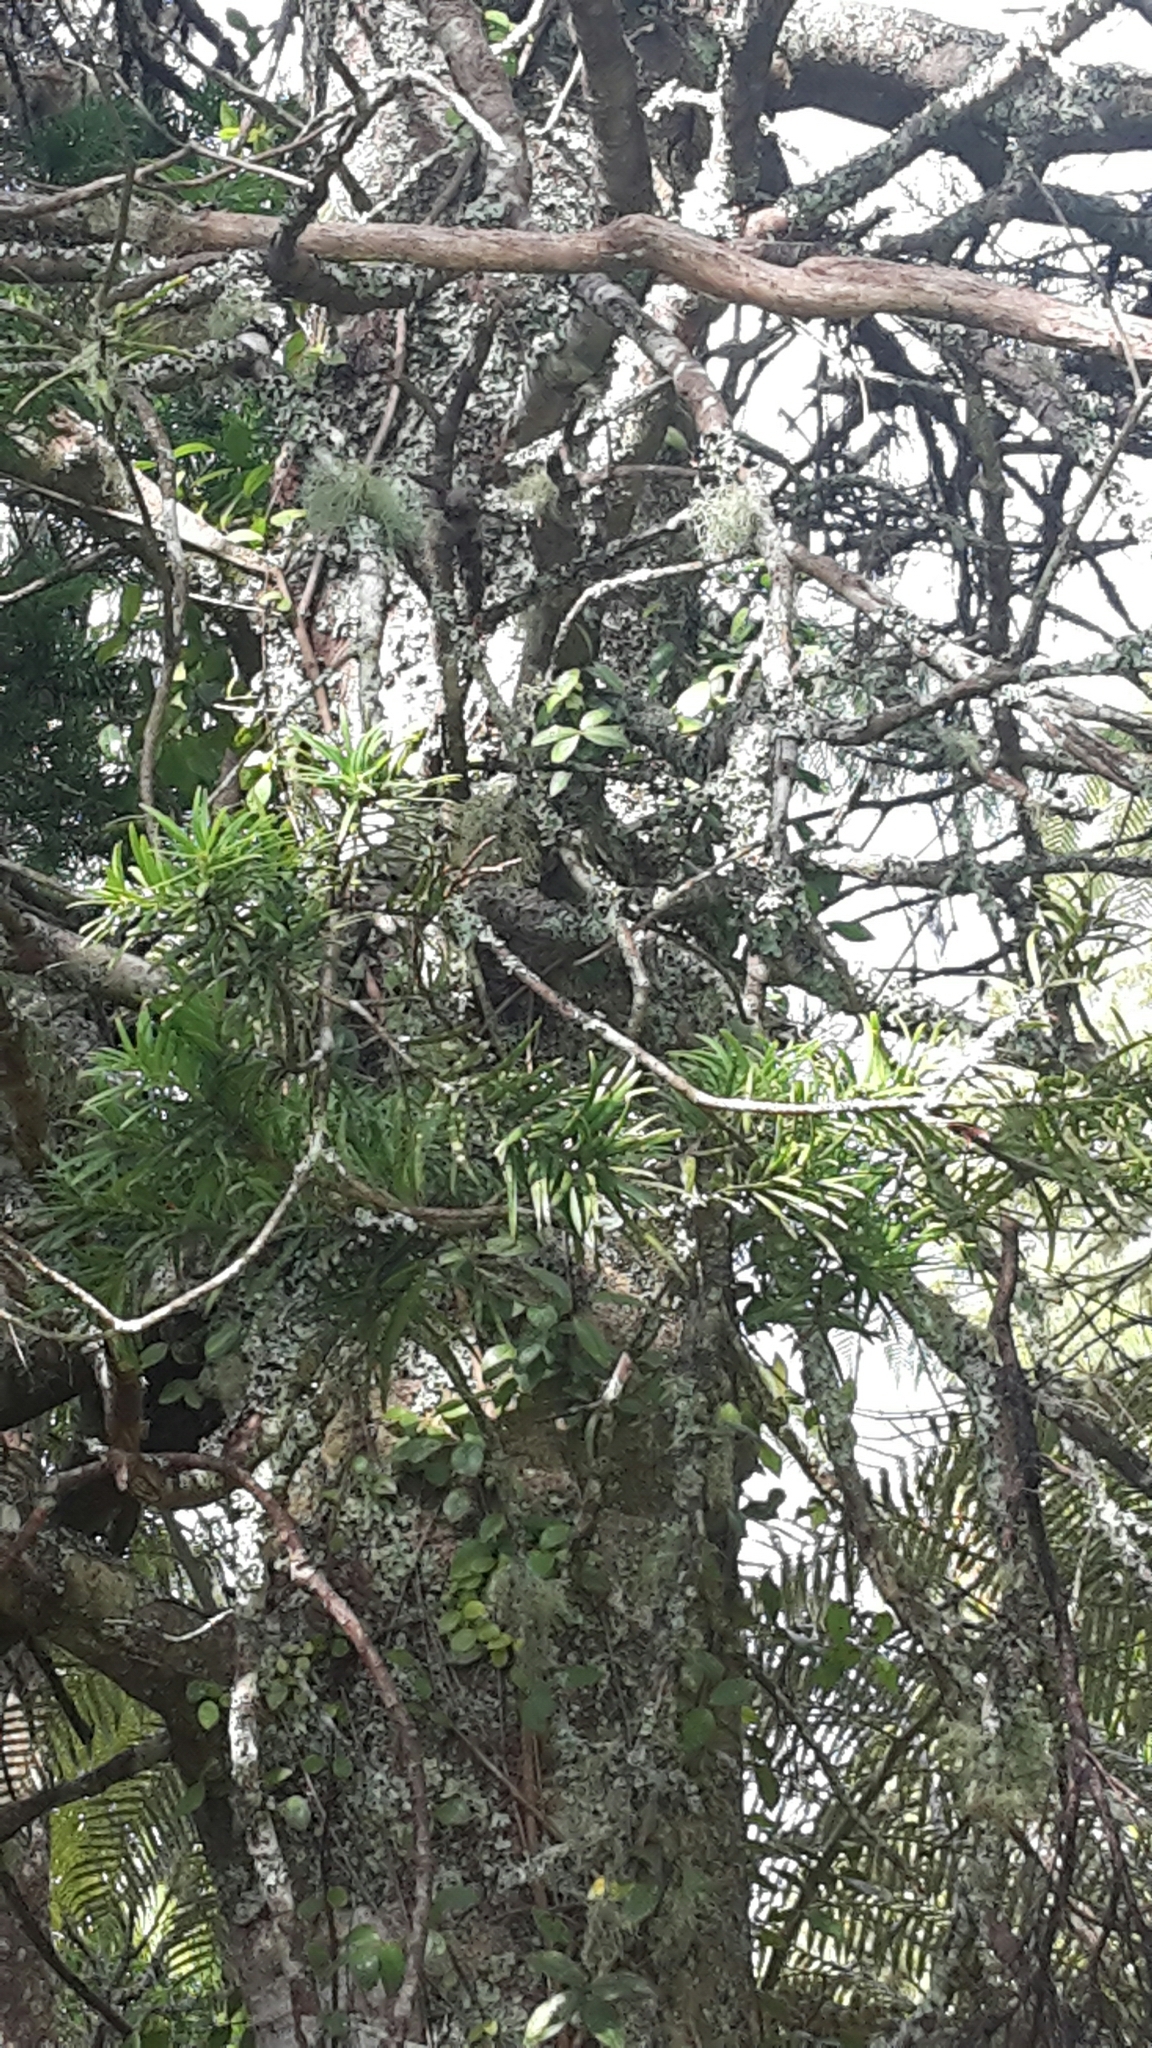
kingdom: Plantae
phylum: Tracheophyta
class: Pinopsida
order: Pinales
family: Podocarpaceae
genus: Halocarpus
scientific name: Halocarpus kirkii
